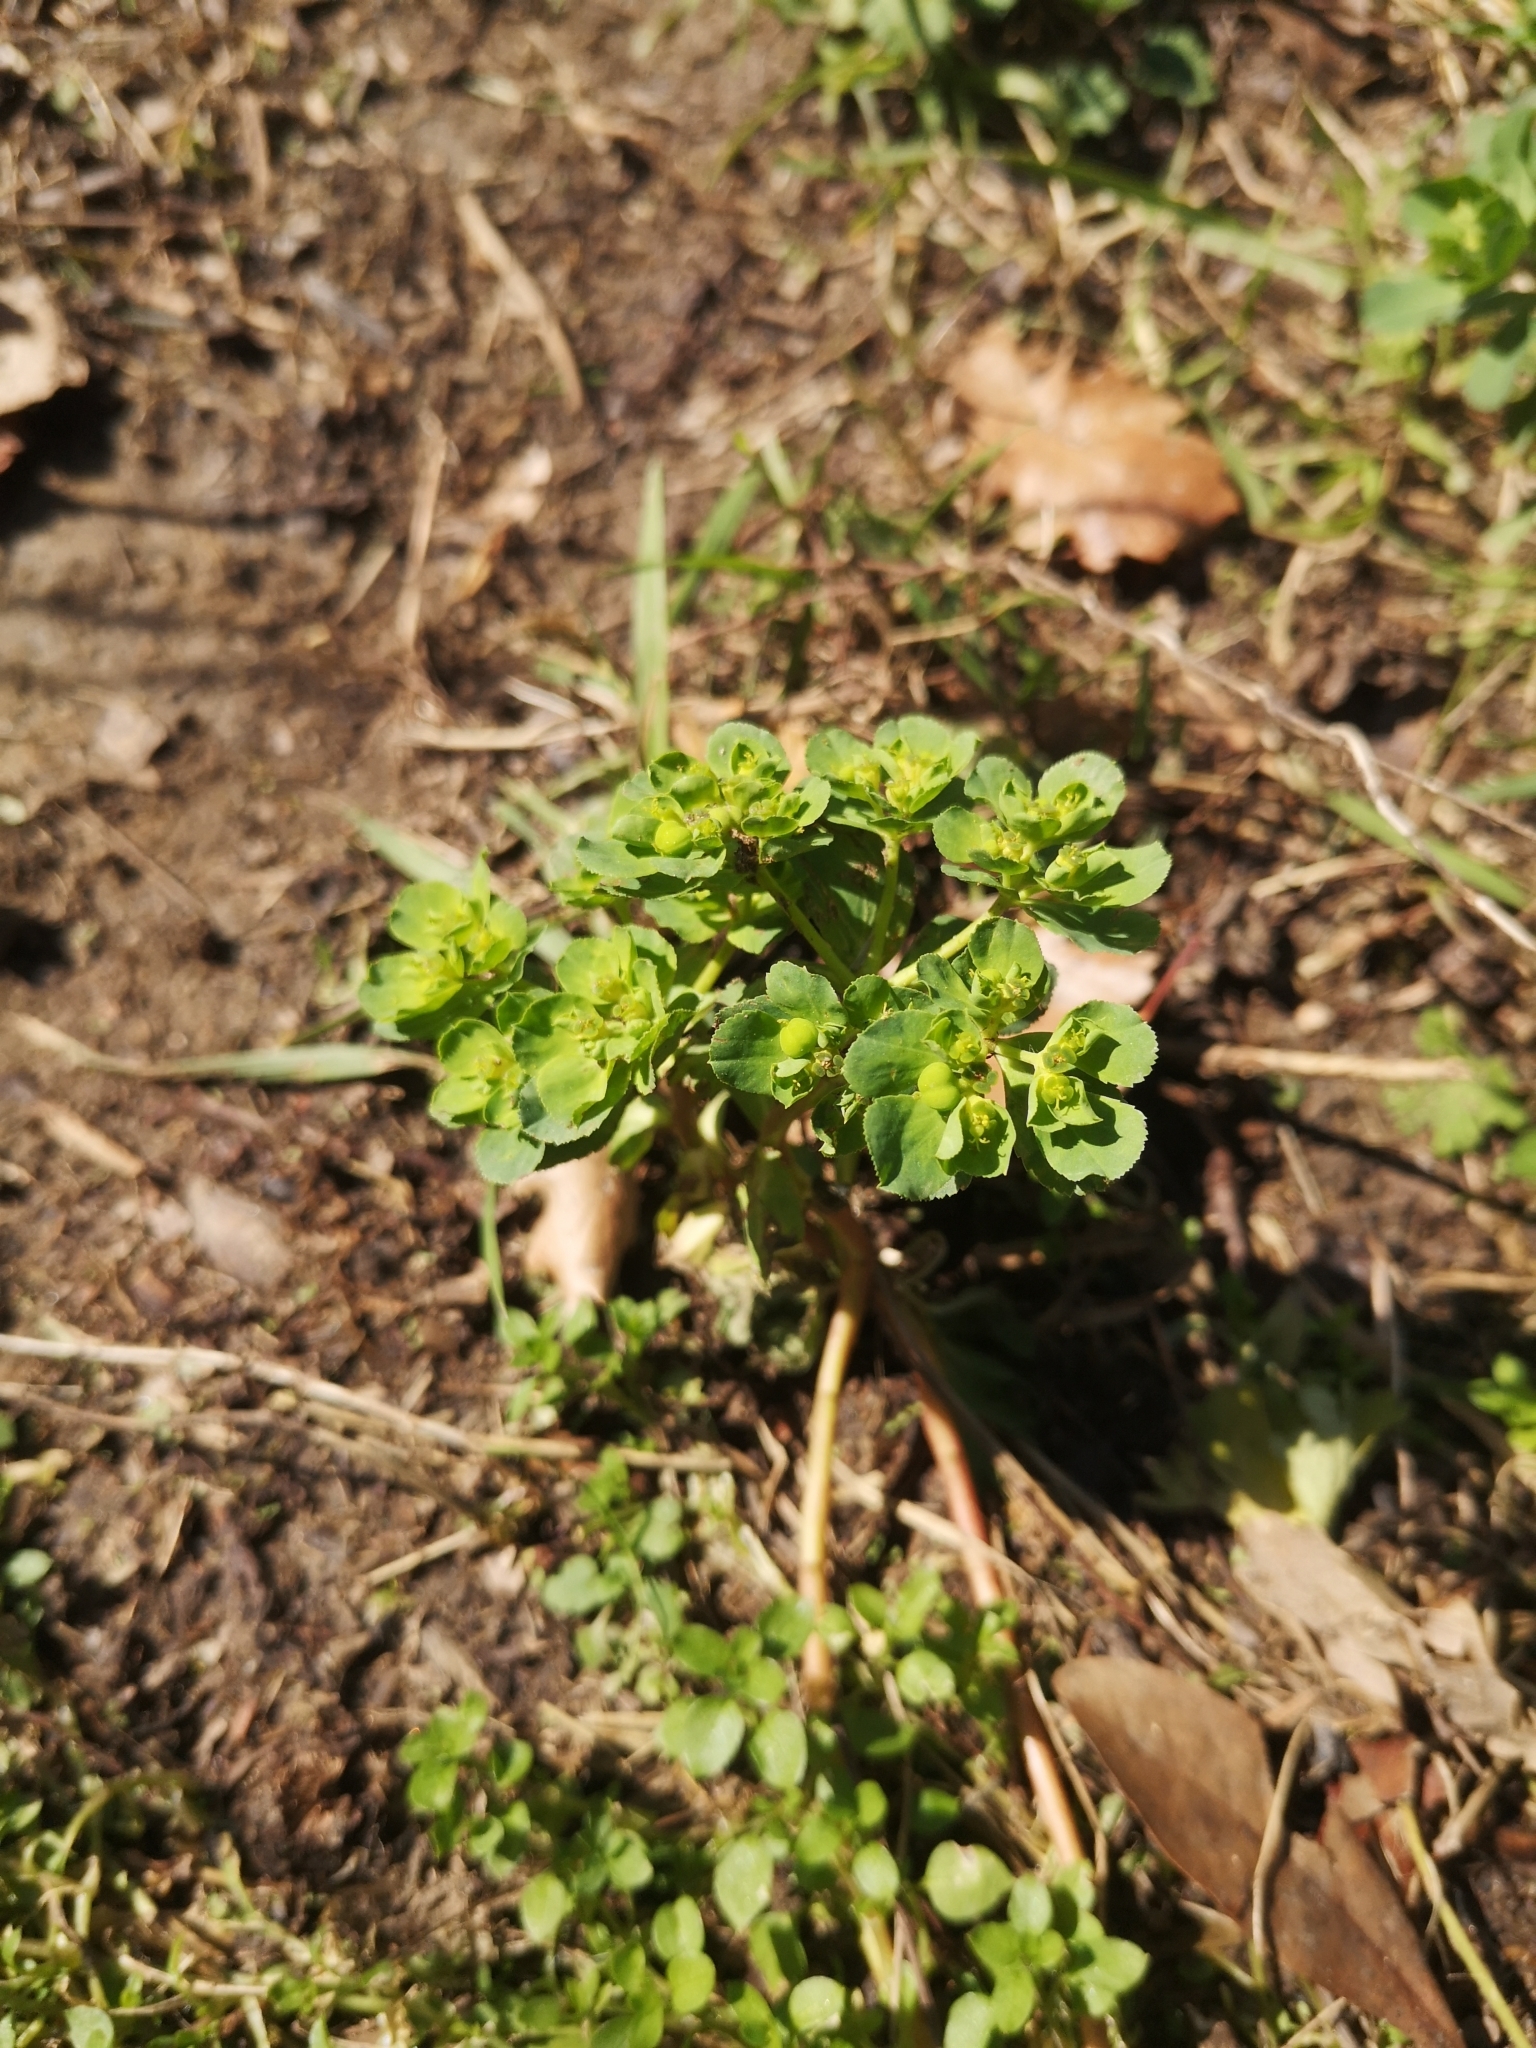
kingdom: Plantae
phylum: Tracheophyta
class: Magnoliopsida
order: Malpighiales
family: Euphorbiaceae
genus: Euphorbia
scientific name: Euphorbia helioscopia
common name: Sun spurge
